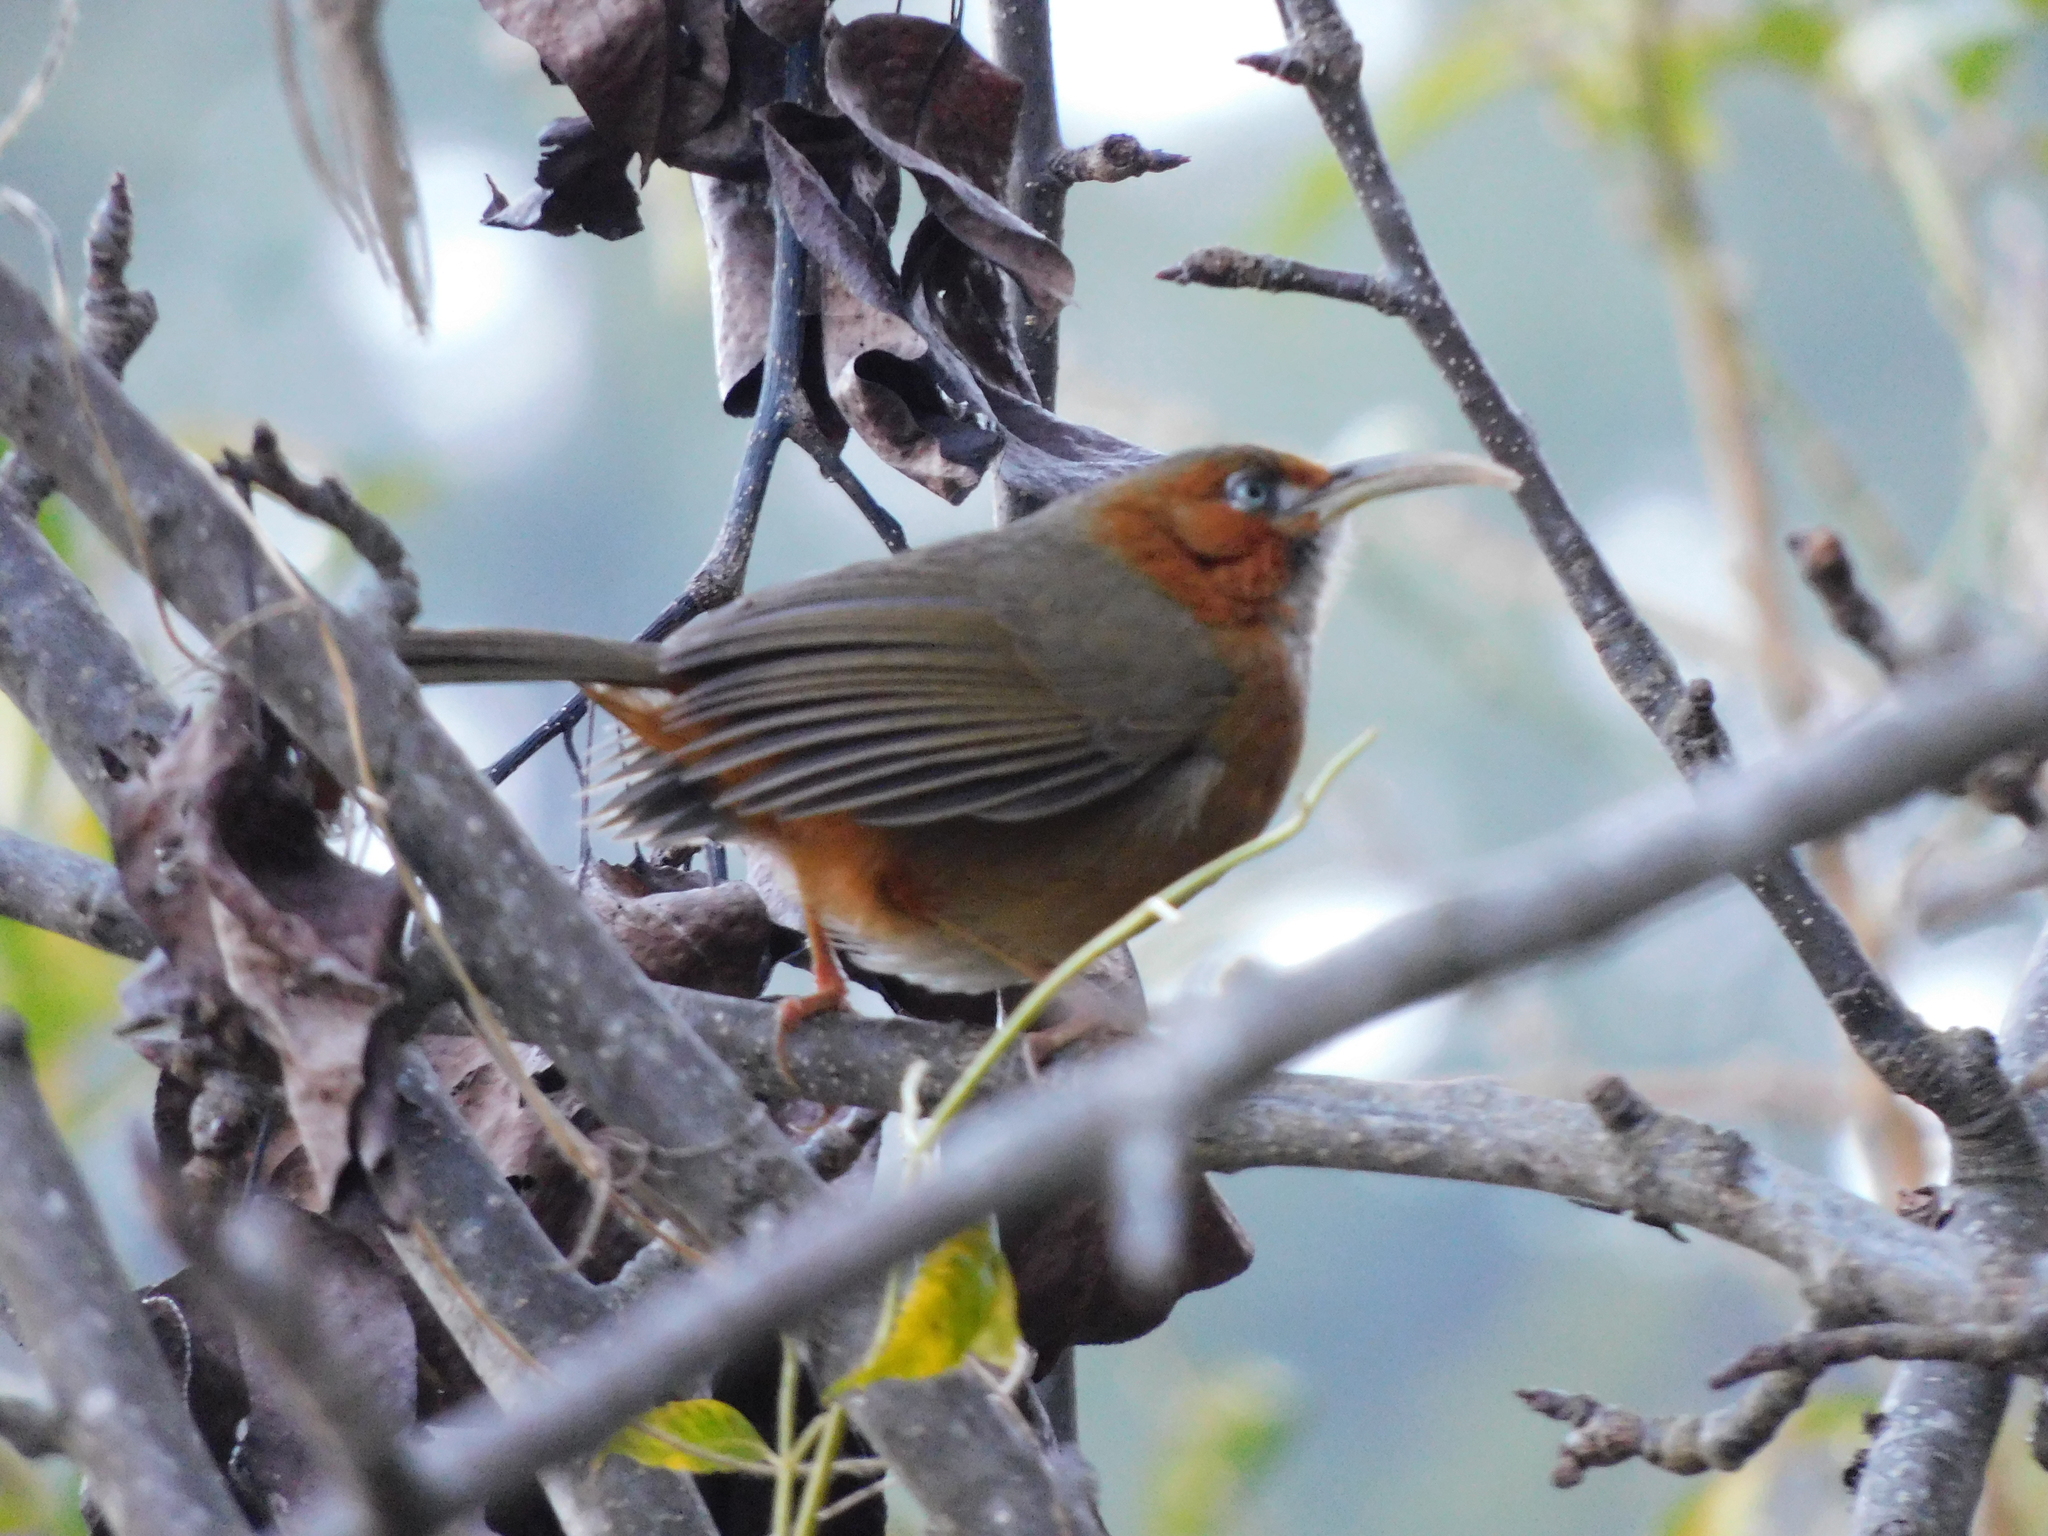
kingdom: Animalia
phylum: Chordata
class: Aves
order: Passeriformes
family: Timaliidae
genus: Pomatorhinus
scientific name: Pomatorhinus erythrogenys
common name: Rusty-cheeked scimitar babbler
